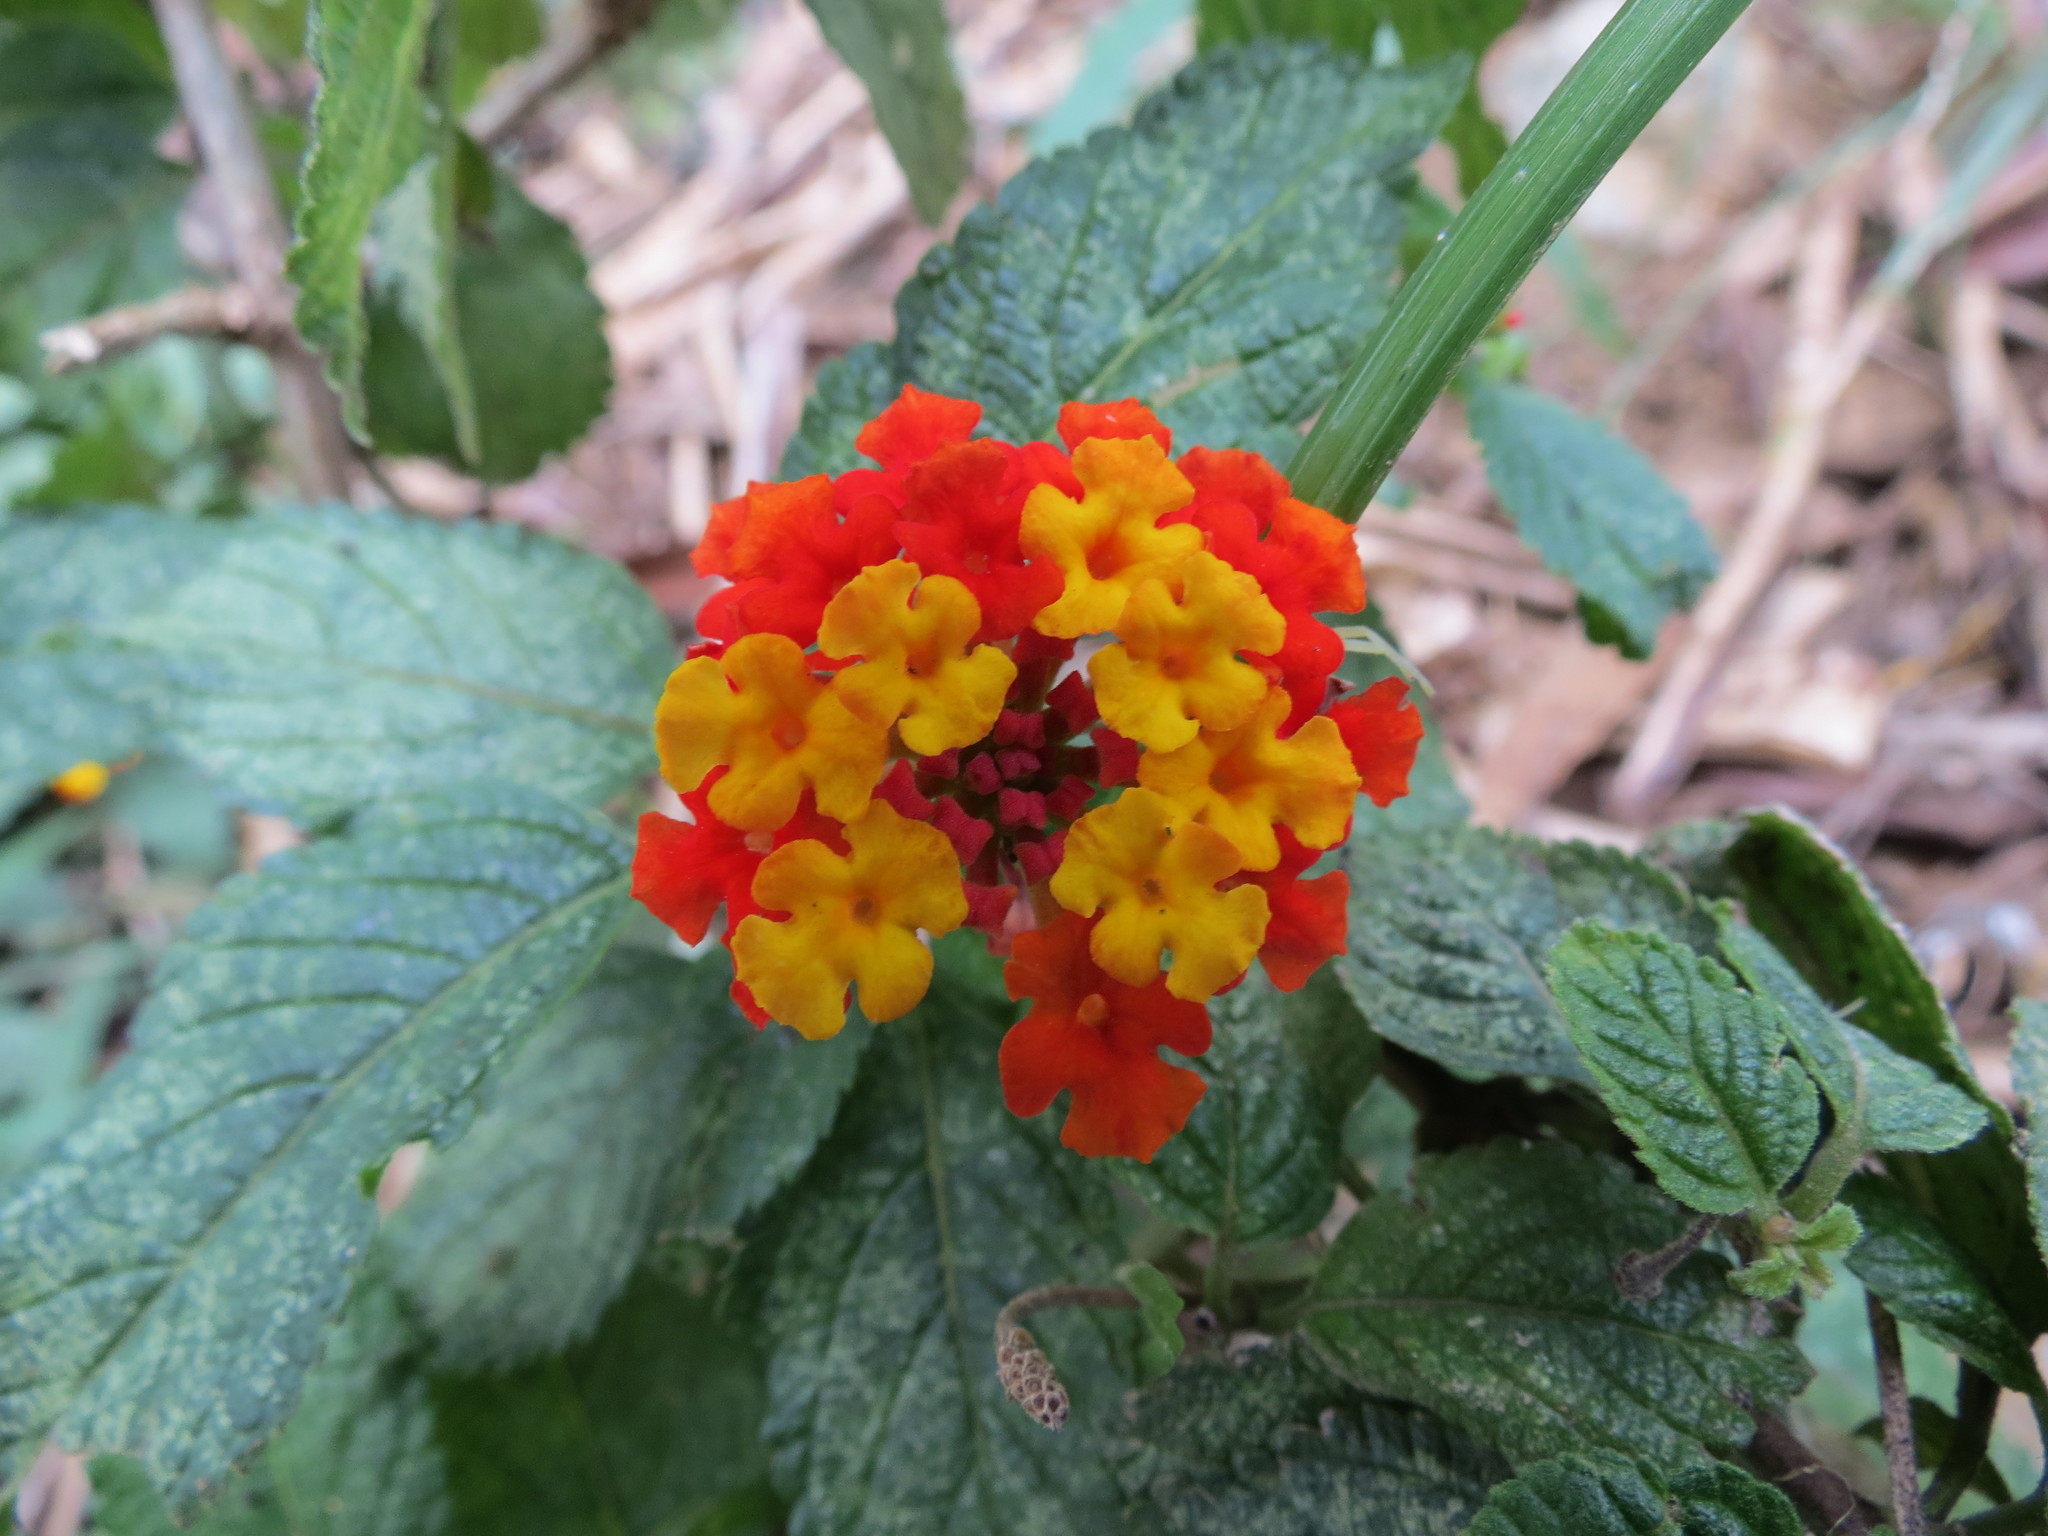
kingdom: Plantae
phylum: Tracheophyta
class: Magnoliopsida
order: Lamiales
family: Verbenaceae
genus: Lantana
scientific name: Lantana camara
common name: Lantana
